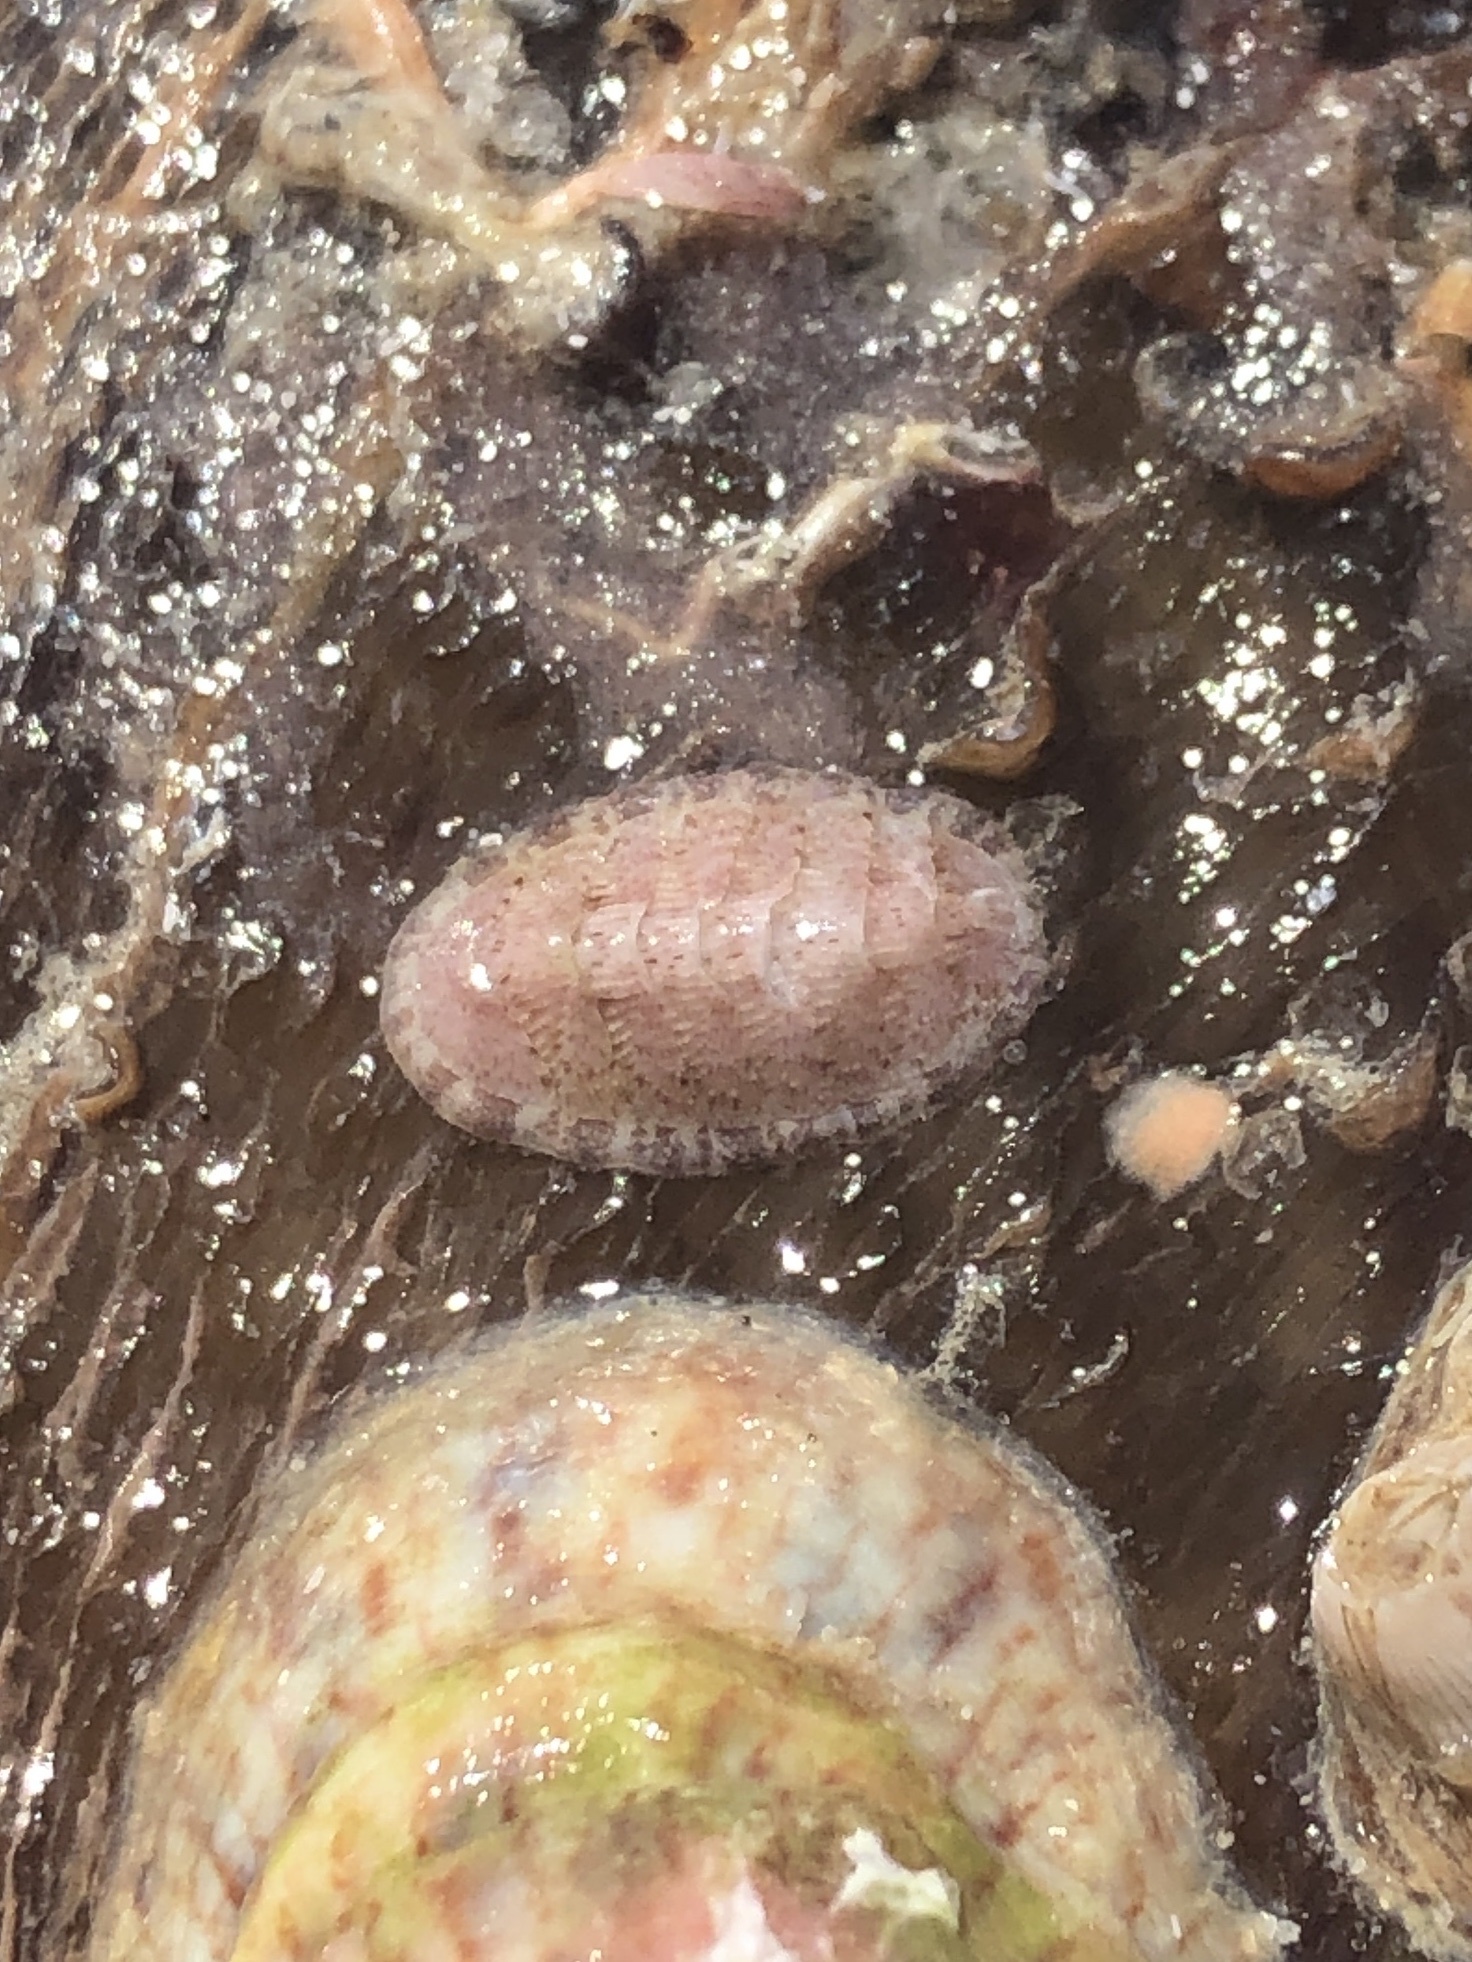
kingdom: Animalia
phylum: Mollusca
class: Polyplacophora
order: Chitonida
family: Chaetopleuridae
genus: Chaetopleura
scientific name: Chaetopleura apiculata
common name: Bee chiton
